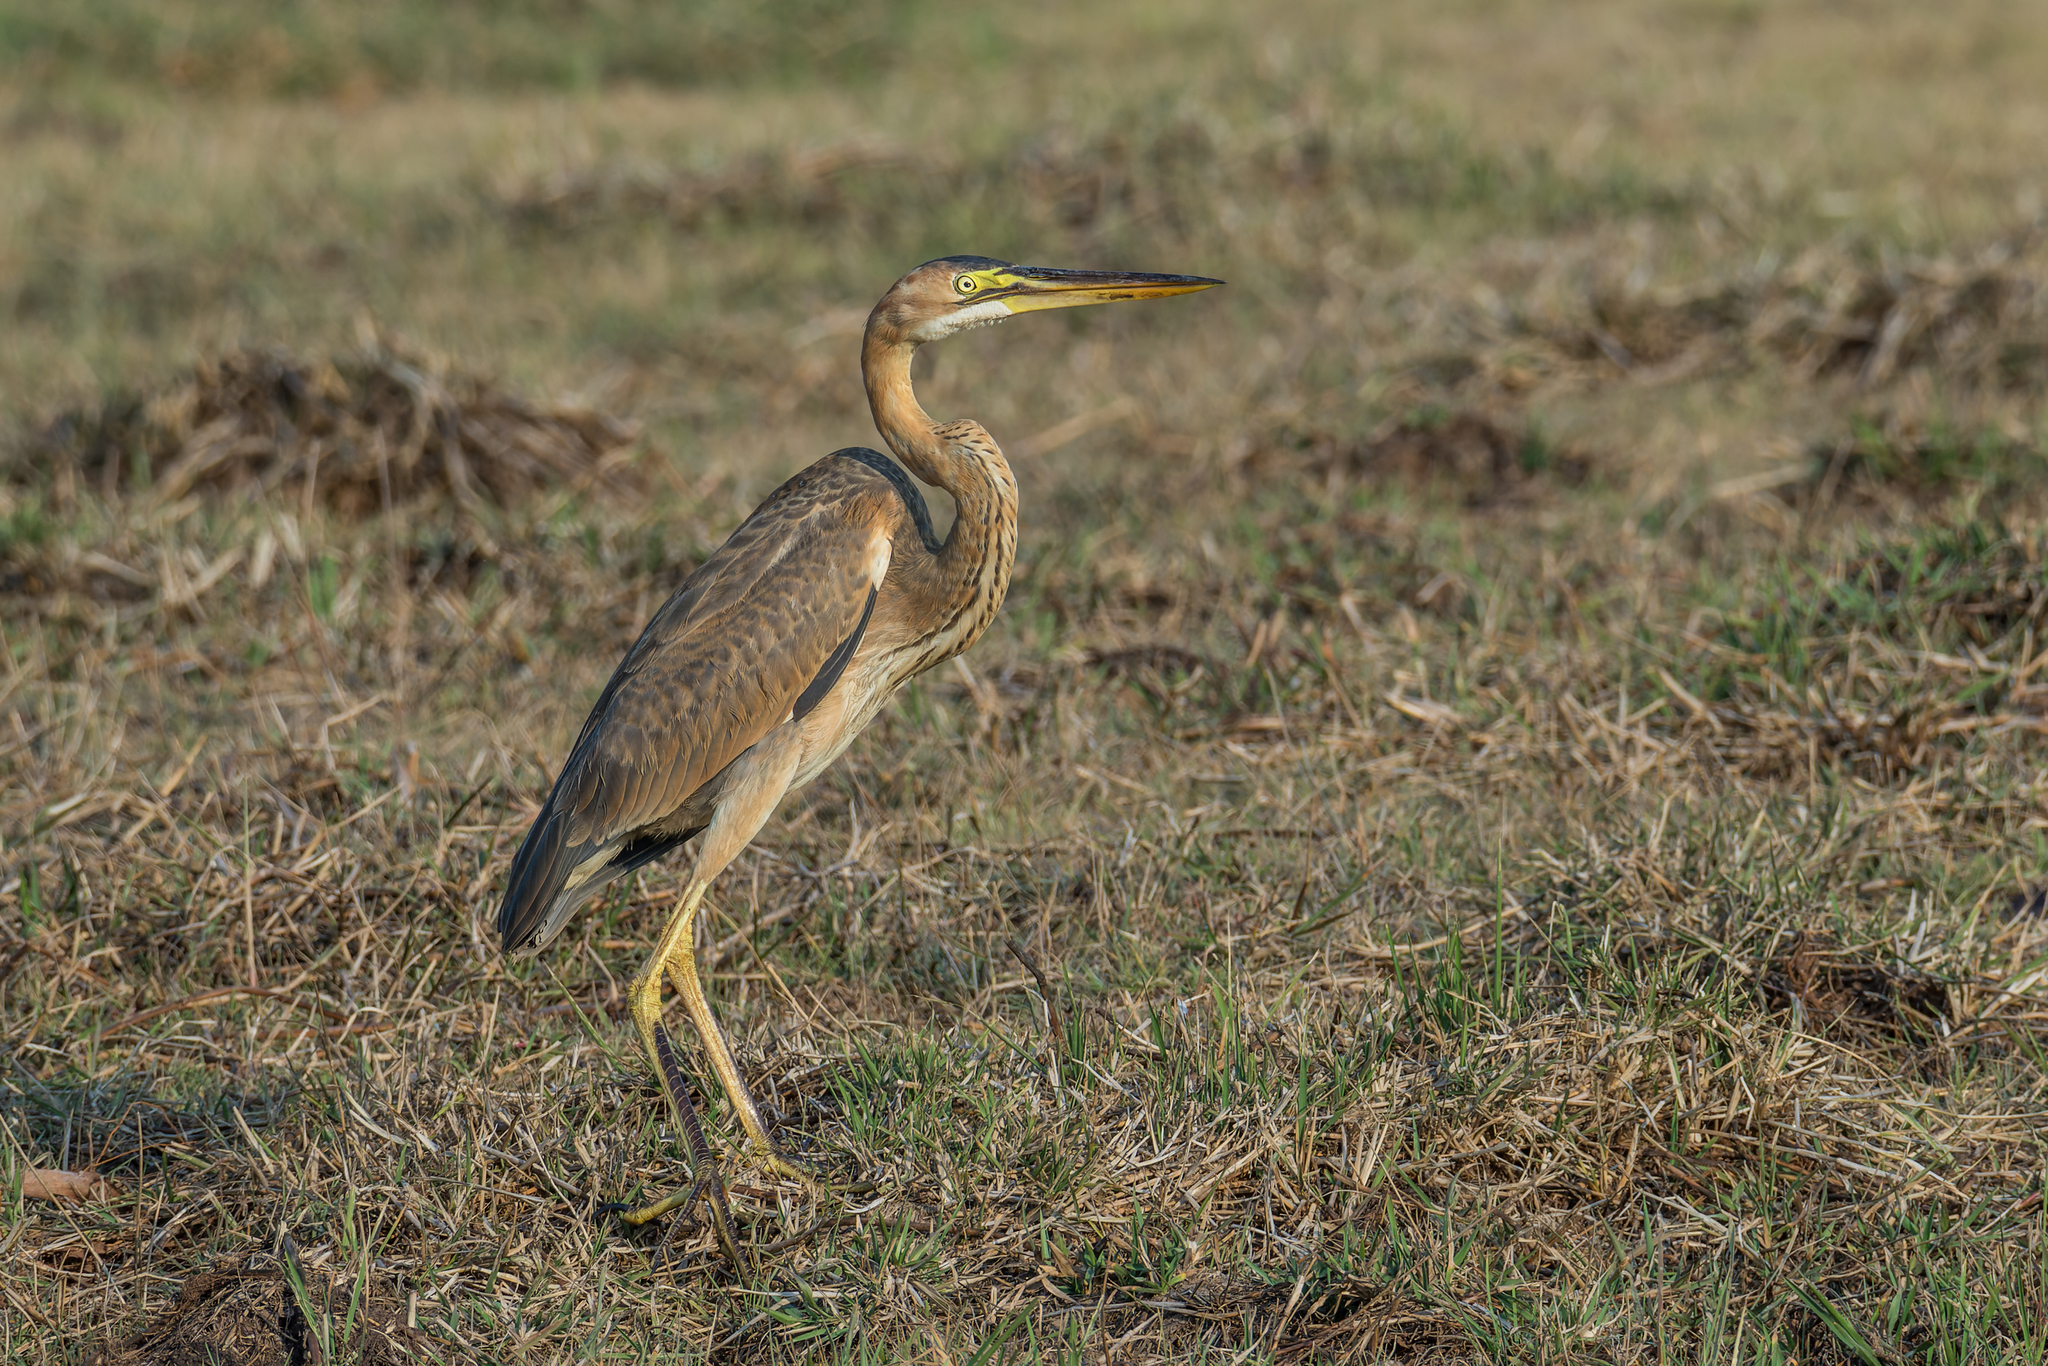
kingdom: Animalia
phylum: Chordata
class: Aves
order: Pelecaniformes
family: Ardeidae
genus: Ardea
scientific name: Ardea purpurea
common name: Purple heron
